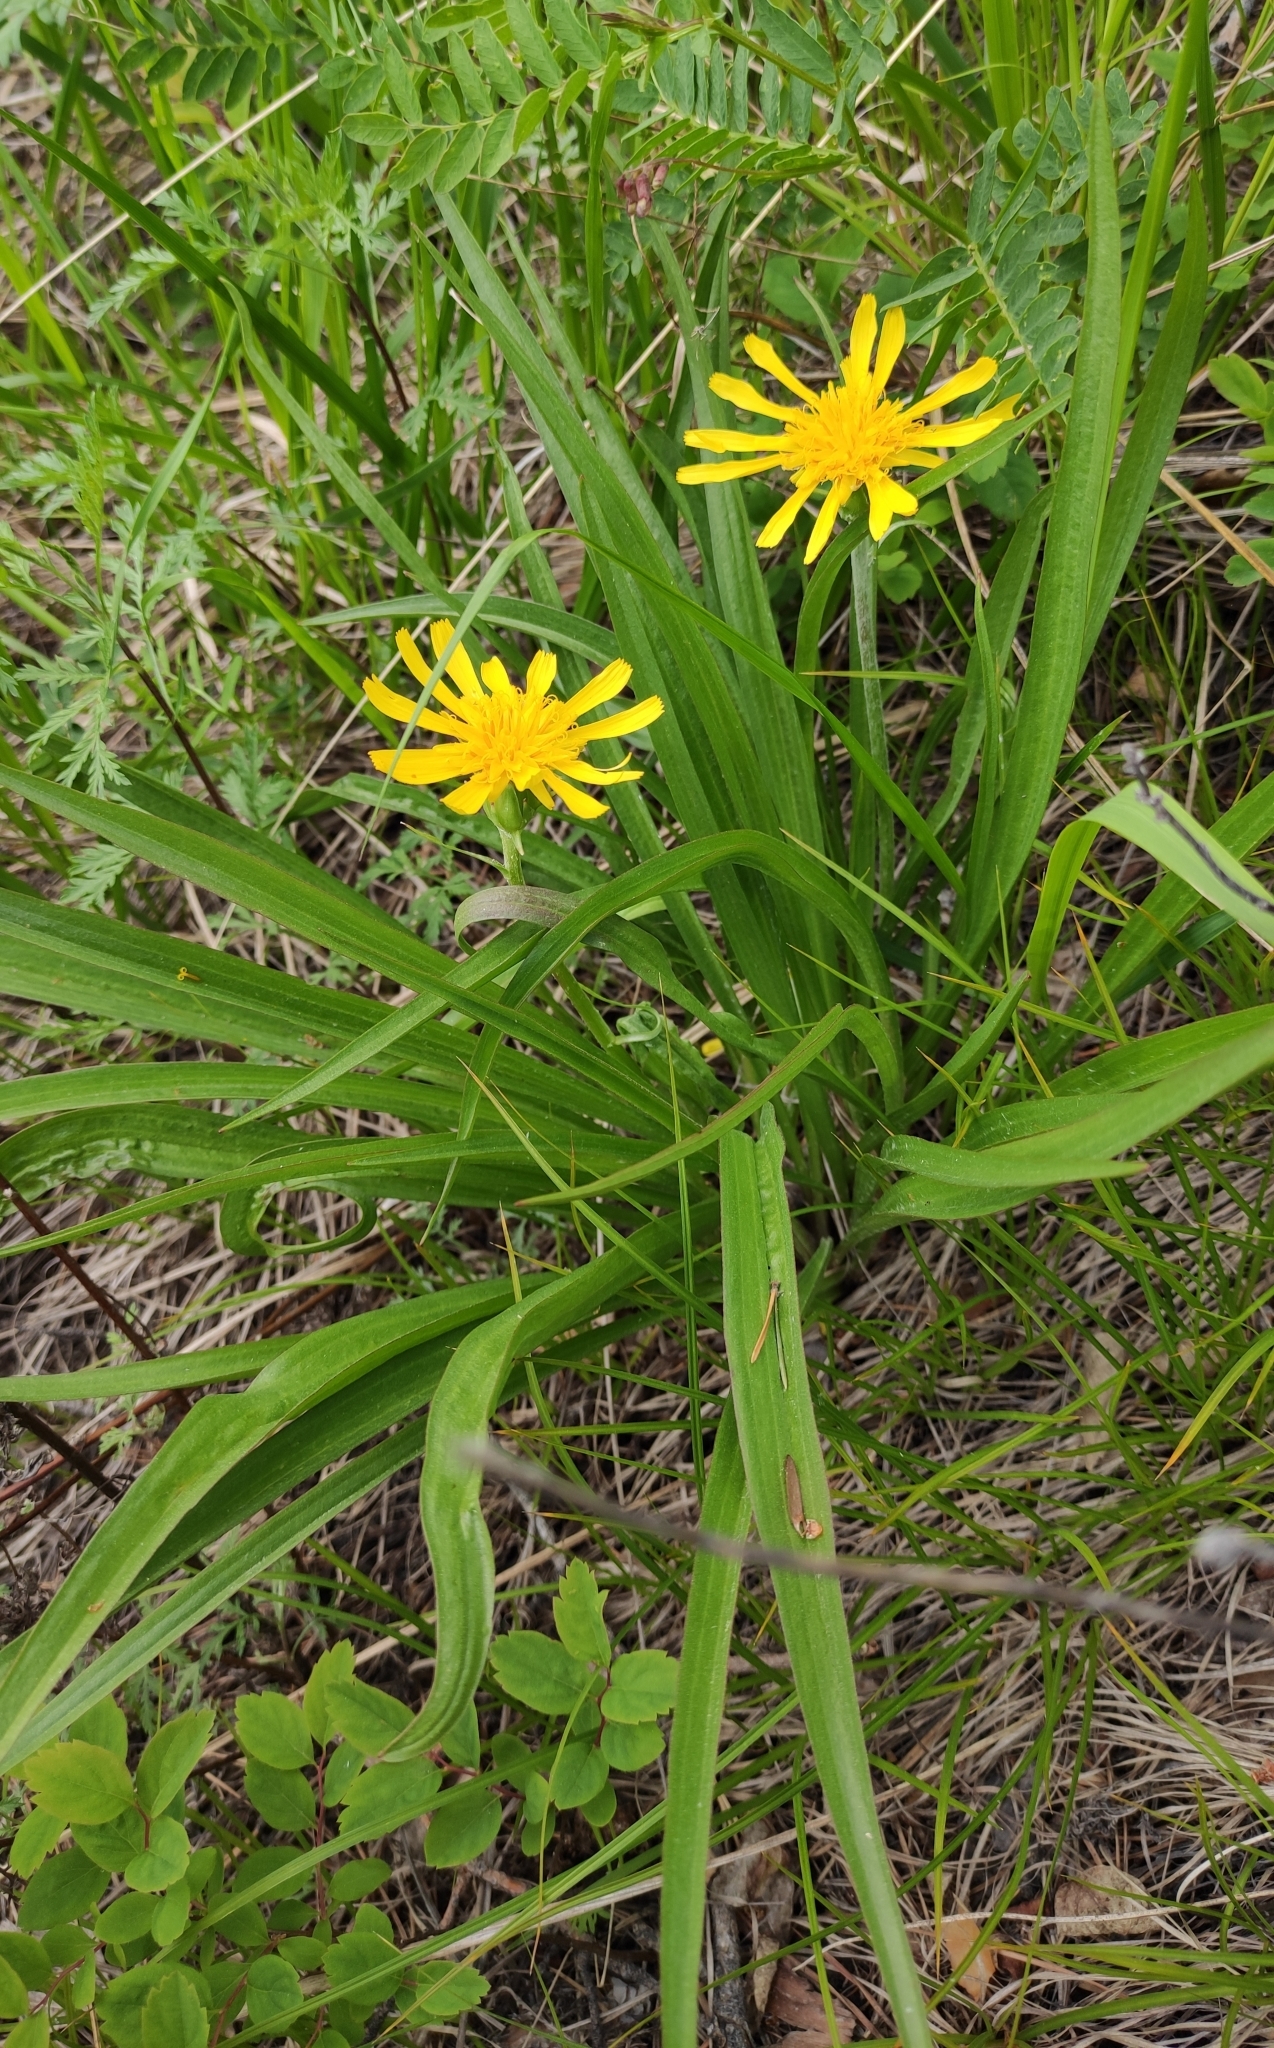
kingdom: Plantae
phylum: Tracheophyta
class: Magnoliopsida
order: Asterales
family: Asteraceae
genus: Scorzonera
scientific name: Scorzonera radiata
